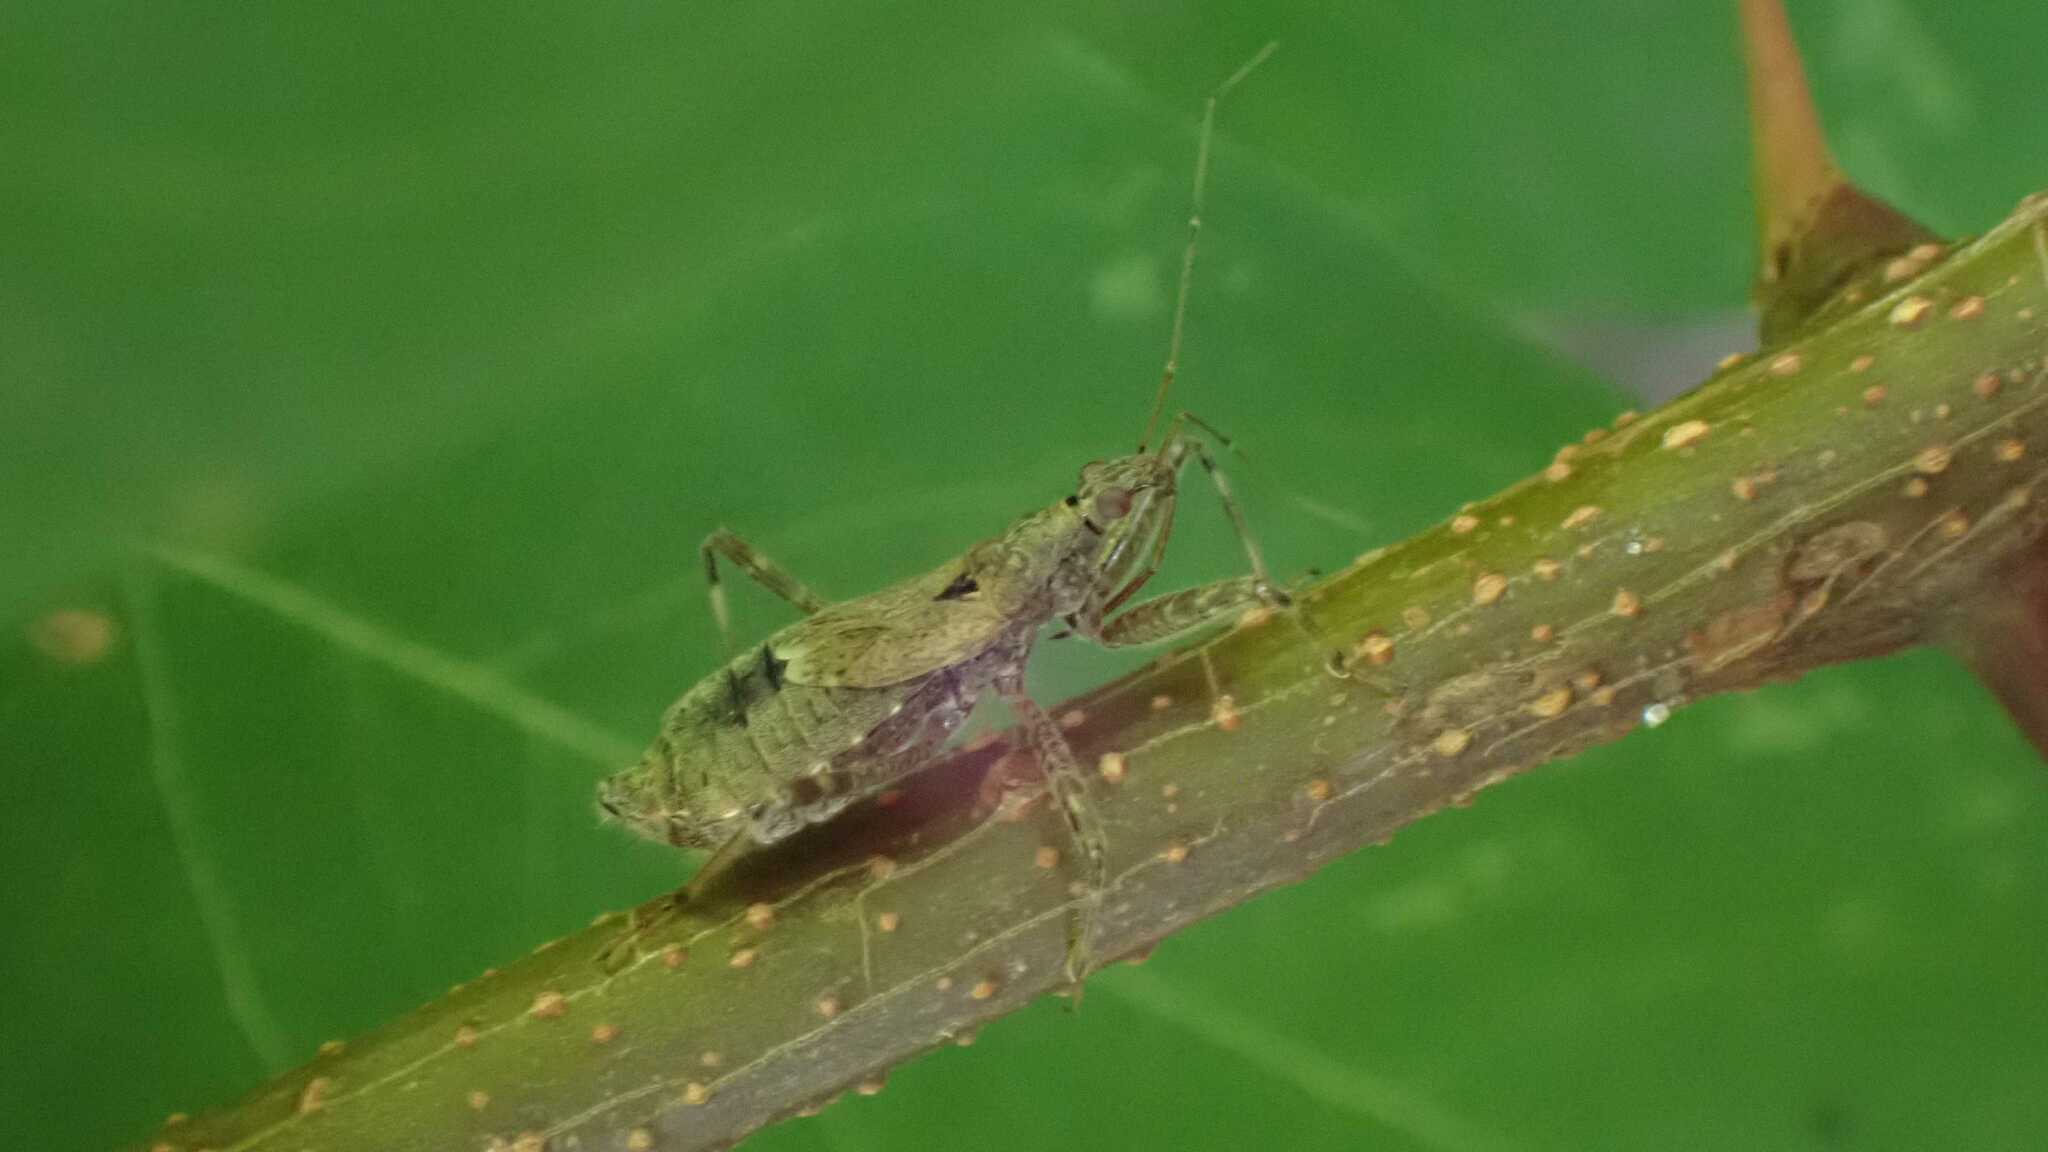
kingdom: Animalia
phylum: Arthropoda
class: Insecta
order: Hemiptera
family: Nabidae
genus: Himacerus
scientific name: Himacerus apterus
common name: Tree damsel bug
